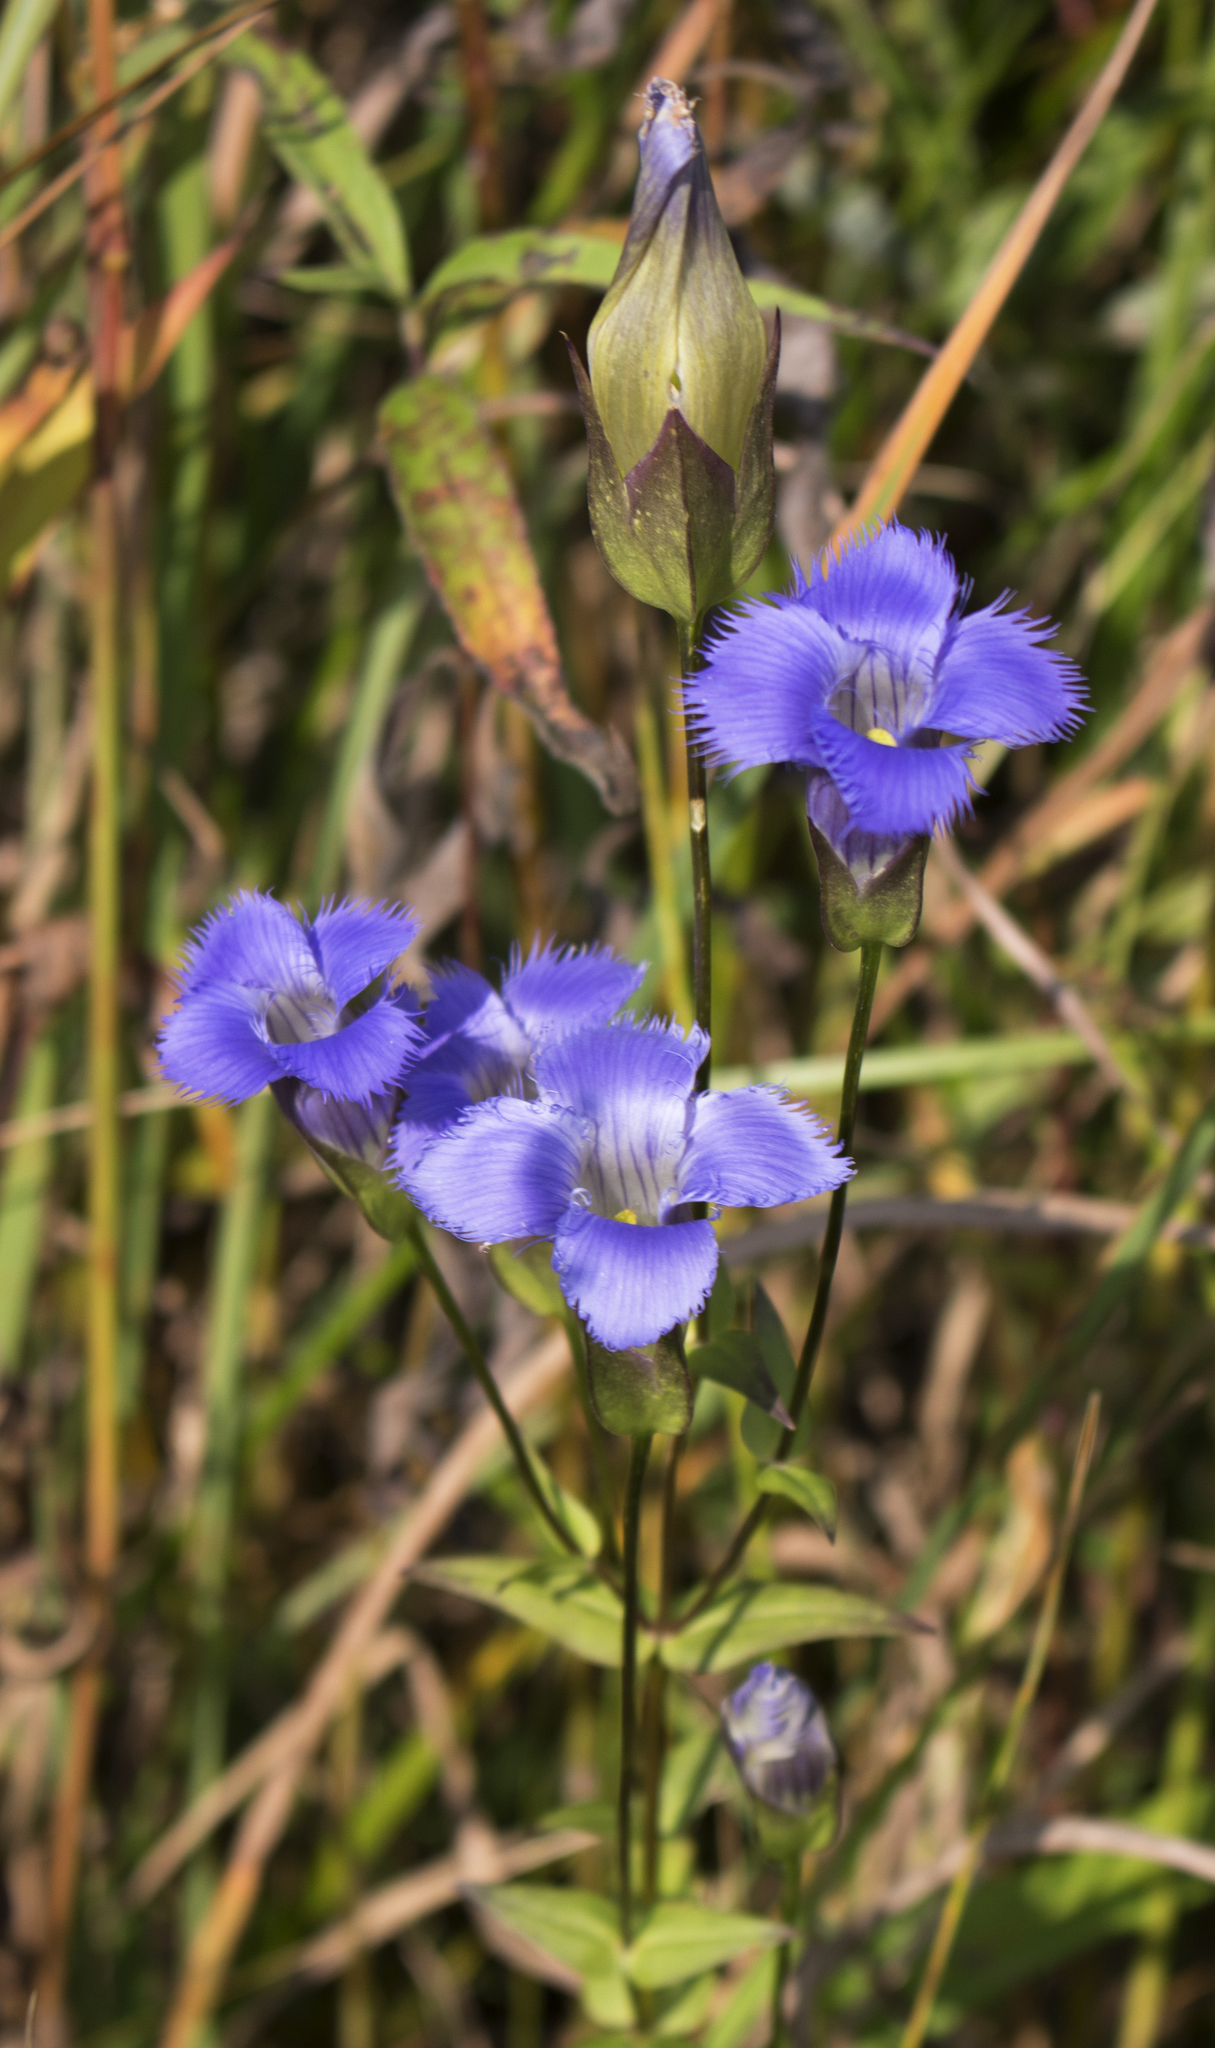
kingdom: Plantae
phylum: Tracheophyta
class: Magnoliopsida
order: Gentianales
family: Gentianaceae
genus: Gentianopsis
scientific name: Gentianopsis crinita
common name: Fringed-gentian
